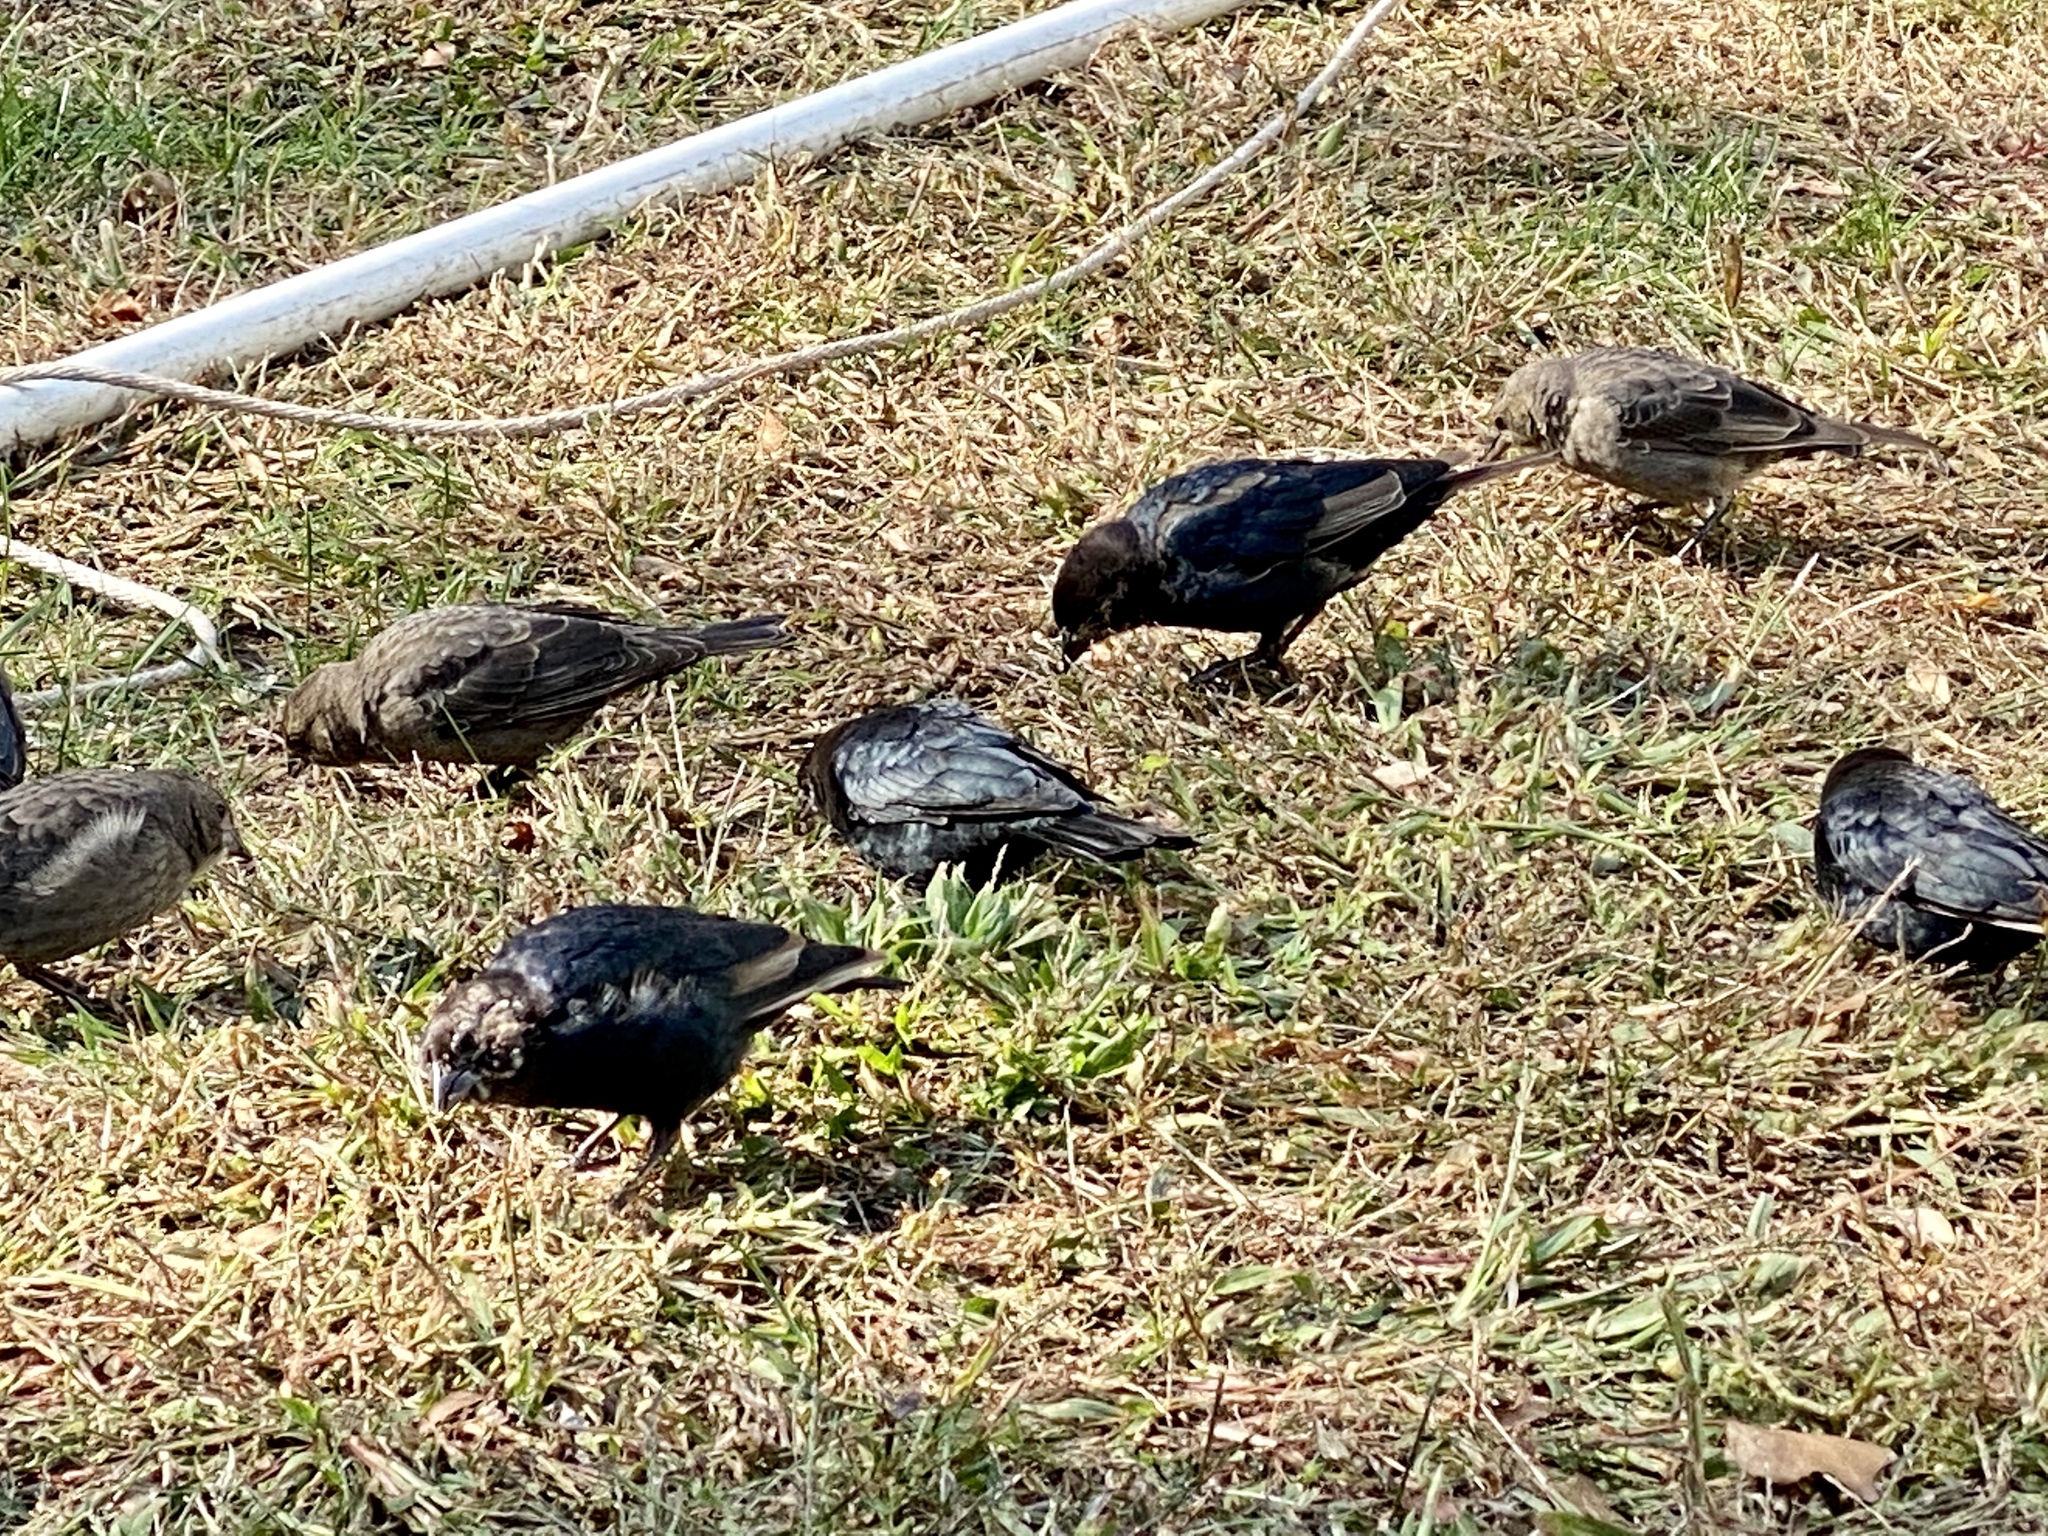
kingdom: Animalia
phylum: Chordata
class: Aves
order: Passeriformes
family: Icteridae
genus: Molothrus
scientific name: Molothrus ater
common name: Brown-headed cowbird
